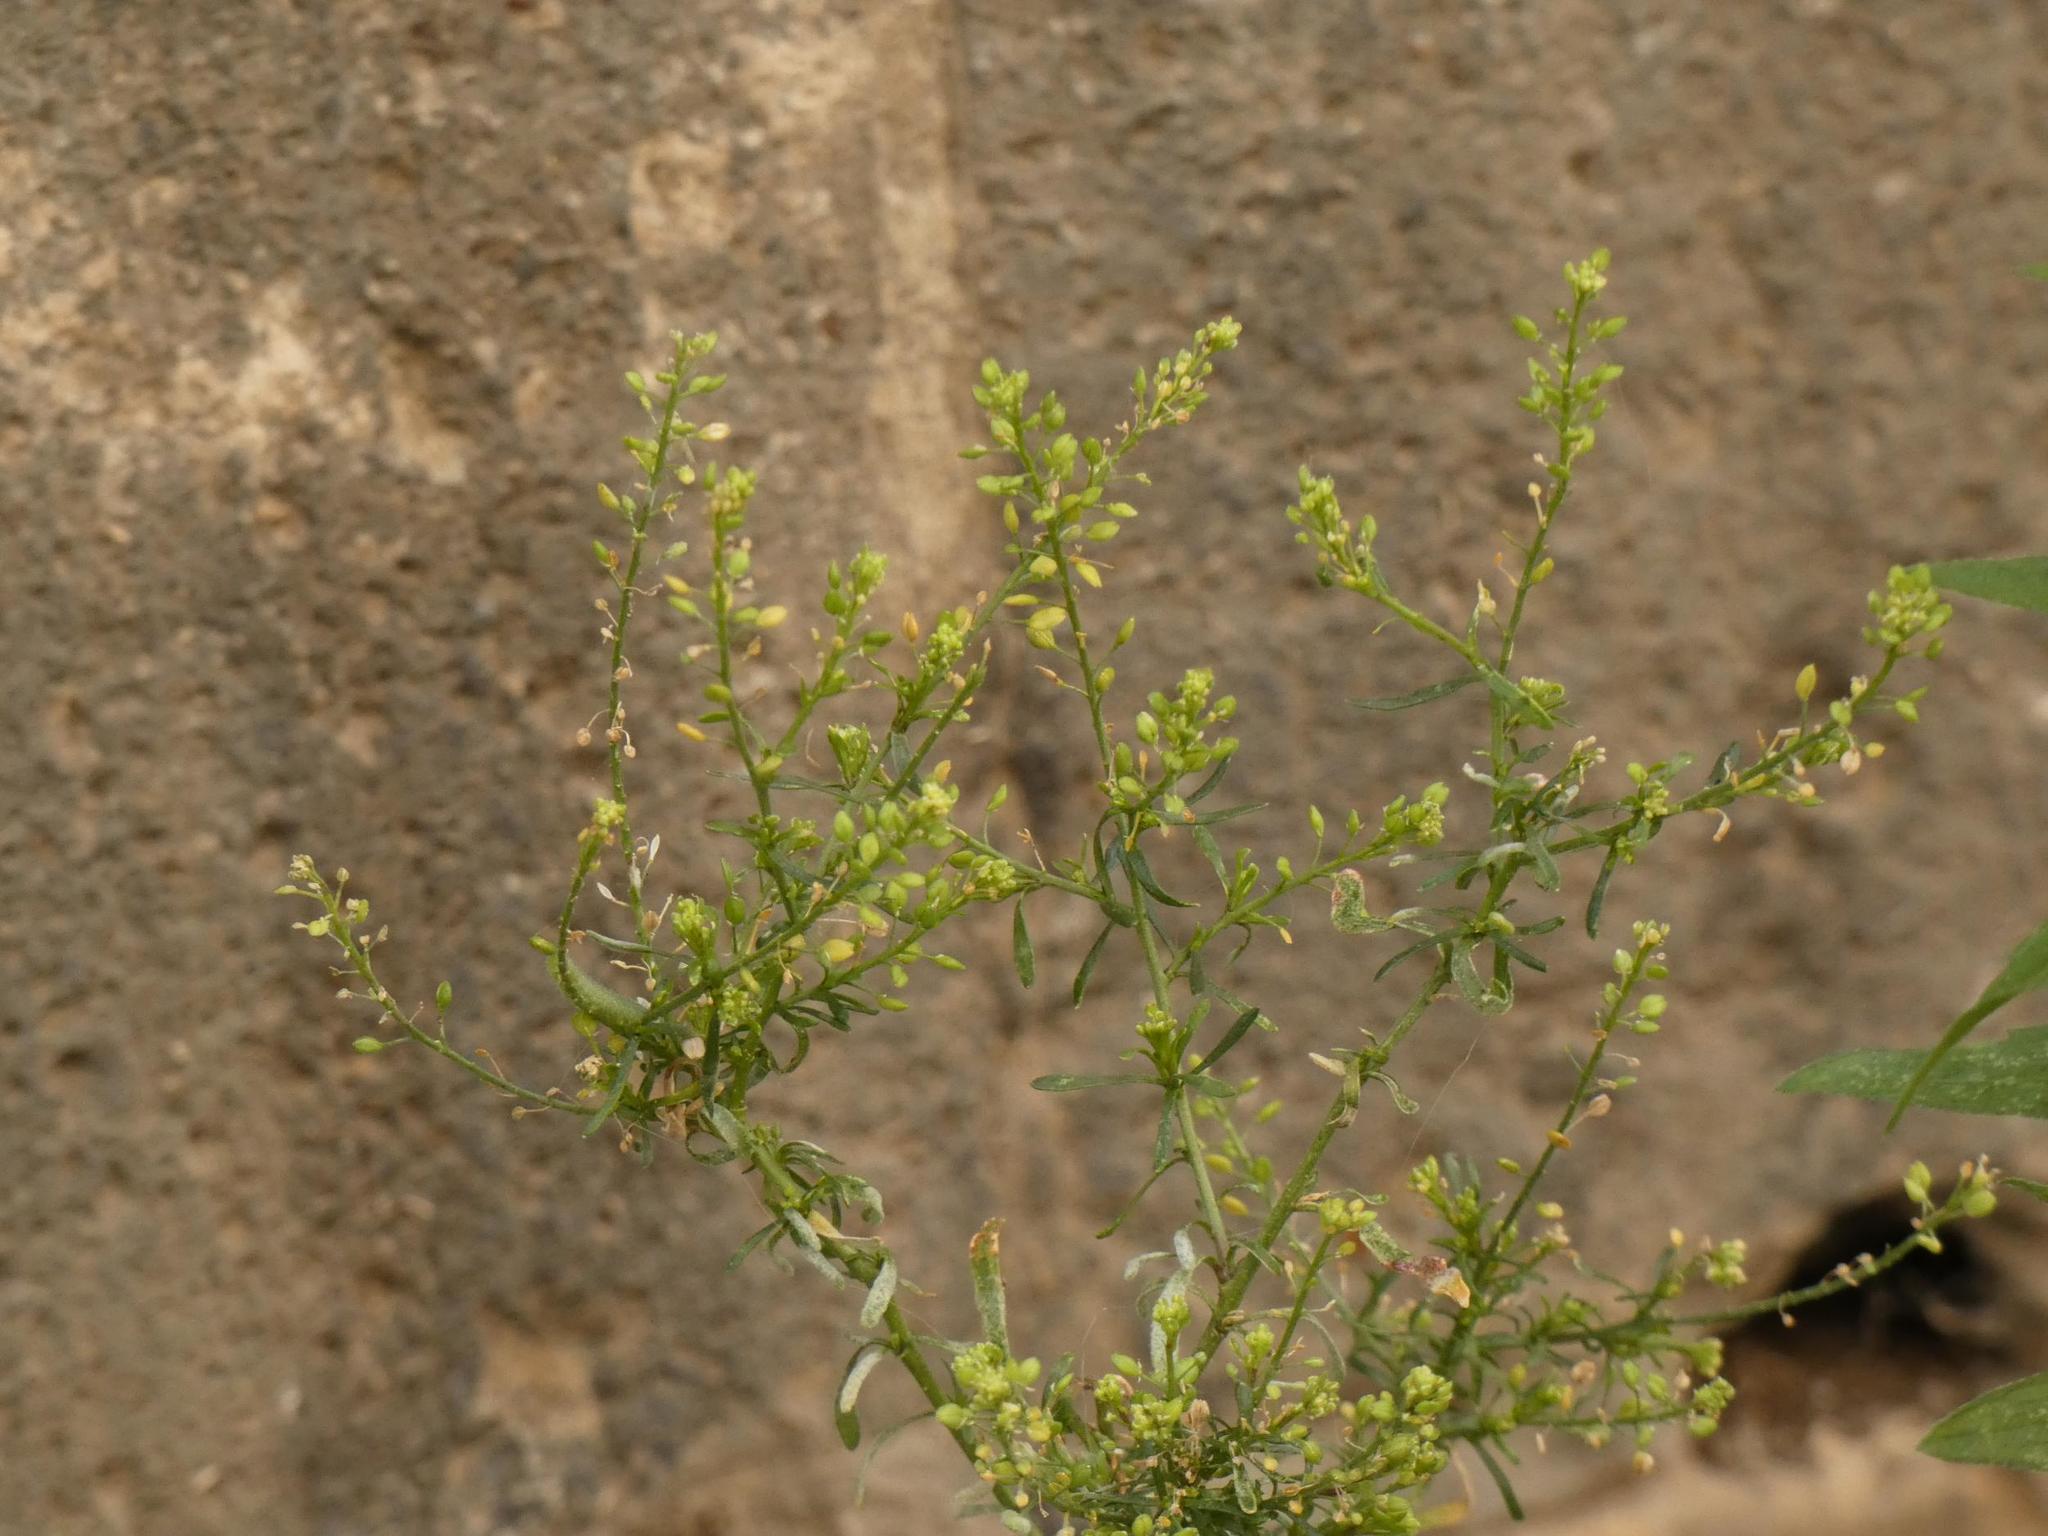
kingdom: Plantae
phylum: Tracheophyta
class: Magnoliopsida
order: Brassicales
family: Brassicaceae
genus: Lepidium
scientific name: Lepidium ruderale
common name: Narrow-leaved pepperwort
